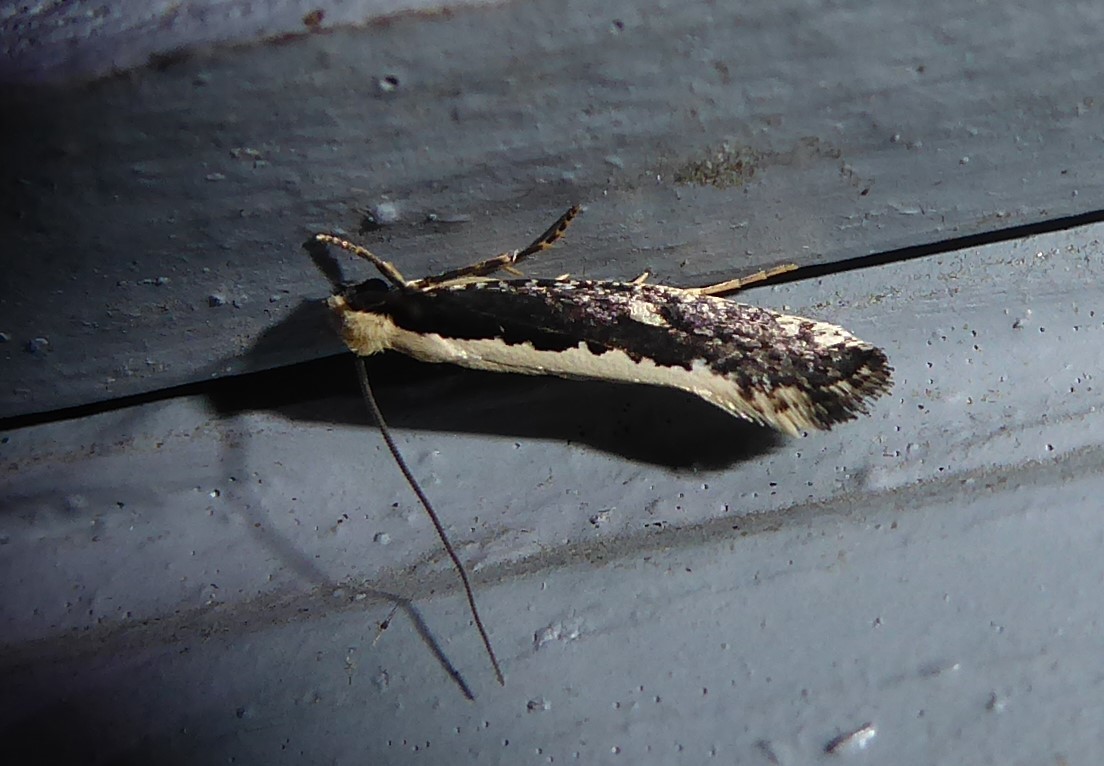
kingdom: Animalia
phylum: Arthropoda
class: Insecta
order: Lepidoptera
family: Tineidae
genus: Monopis
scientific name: Monopis ethelella
